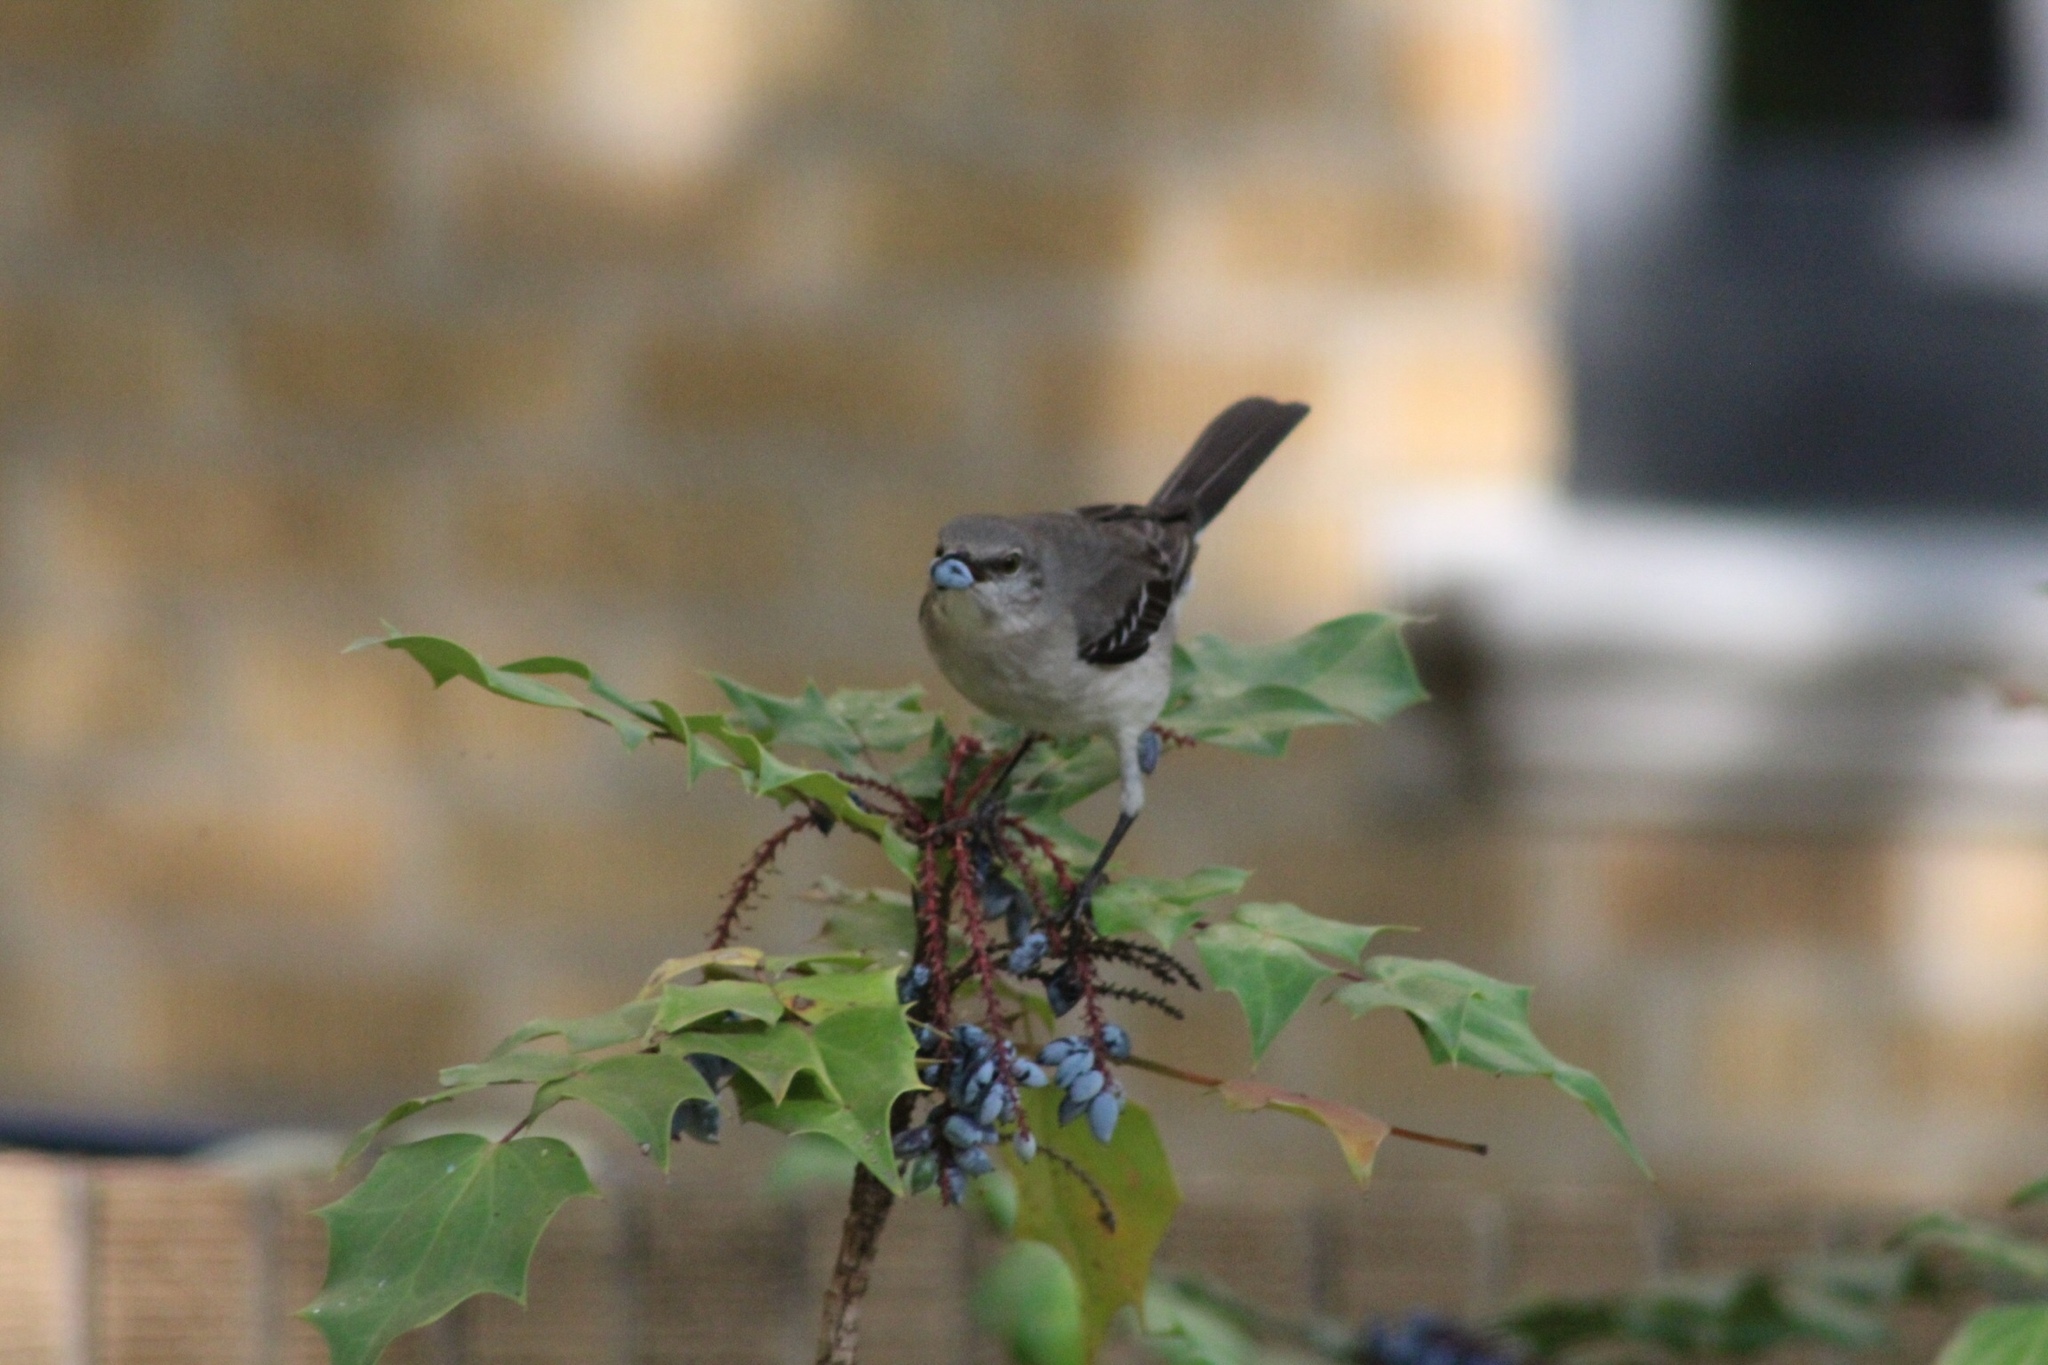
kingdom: Animalia
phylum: Chordata
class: Aves
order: Passeriformes
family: Mimidae
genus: Mimus
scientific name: Mimus polyglottos
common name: Northern mockingbird
